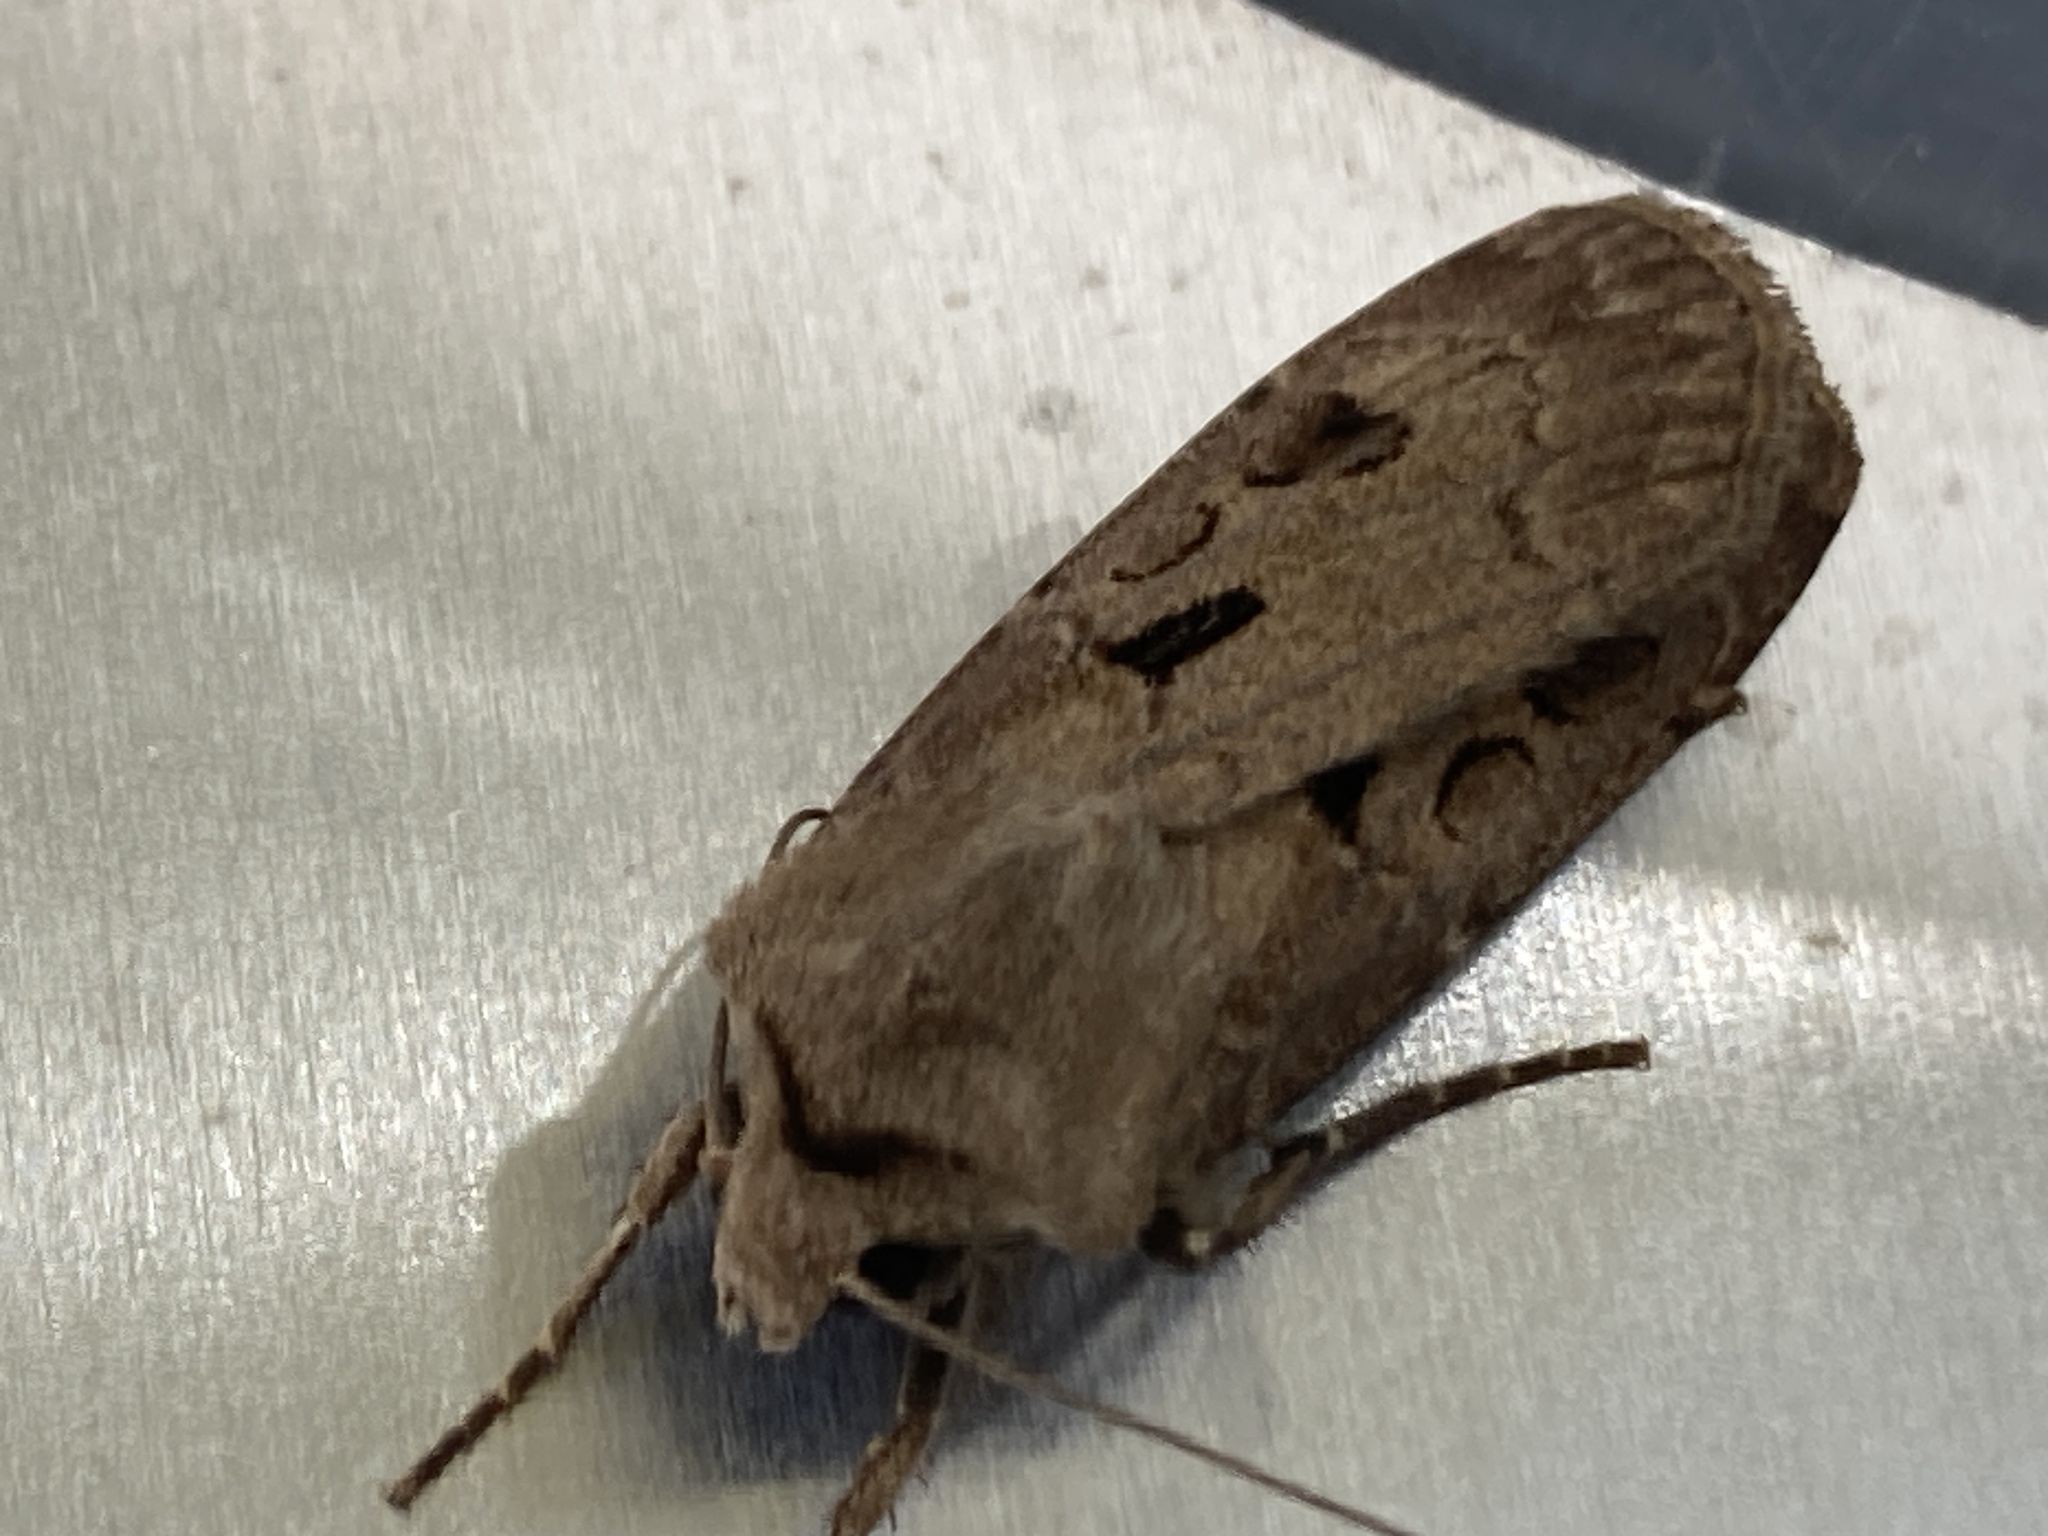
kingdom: Animalia
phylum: Arthropoda
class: Insecta
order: Lepidoptera
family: Noctuidae
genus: Agrotis
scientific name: Agrotis exclamationis
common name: Heart and dart
